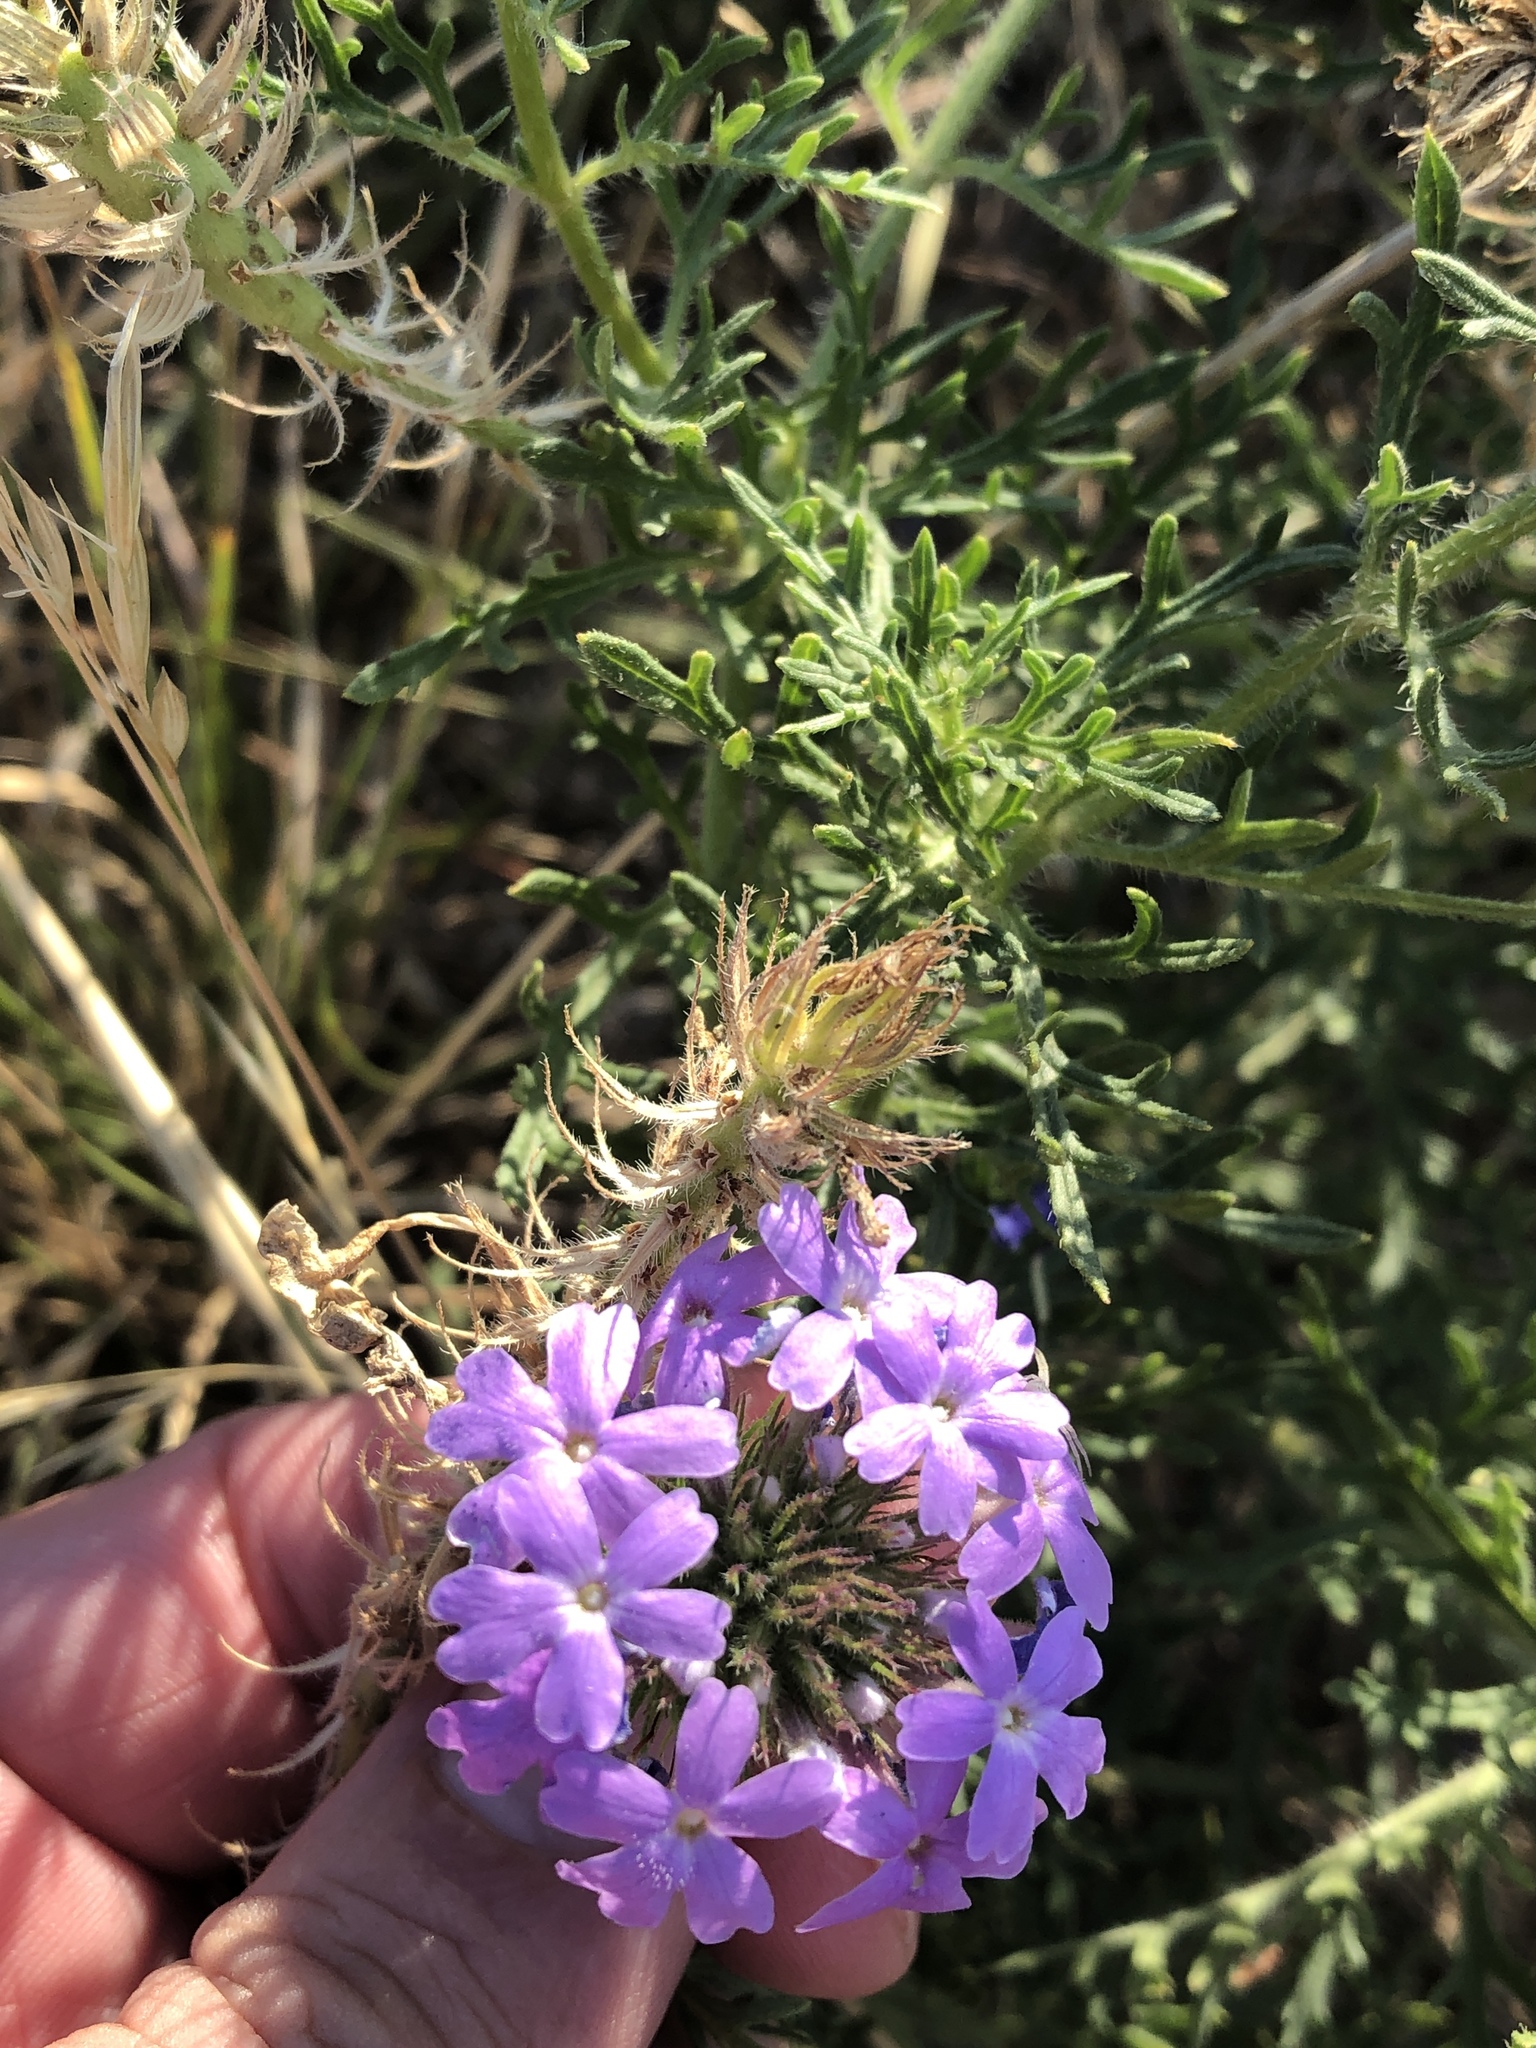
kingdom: Plantae
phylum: Tracheophyta
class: Magnoliopsida
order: Lamiales
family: Verbenaceae
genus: Verbena
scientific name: Verbena bipinnatifida
